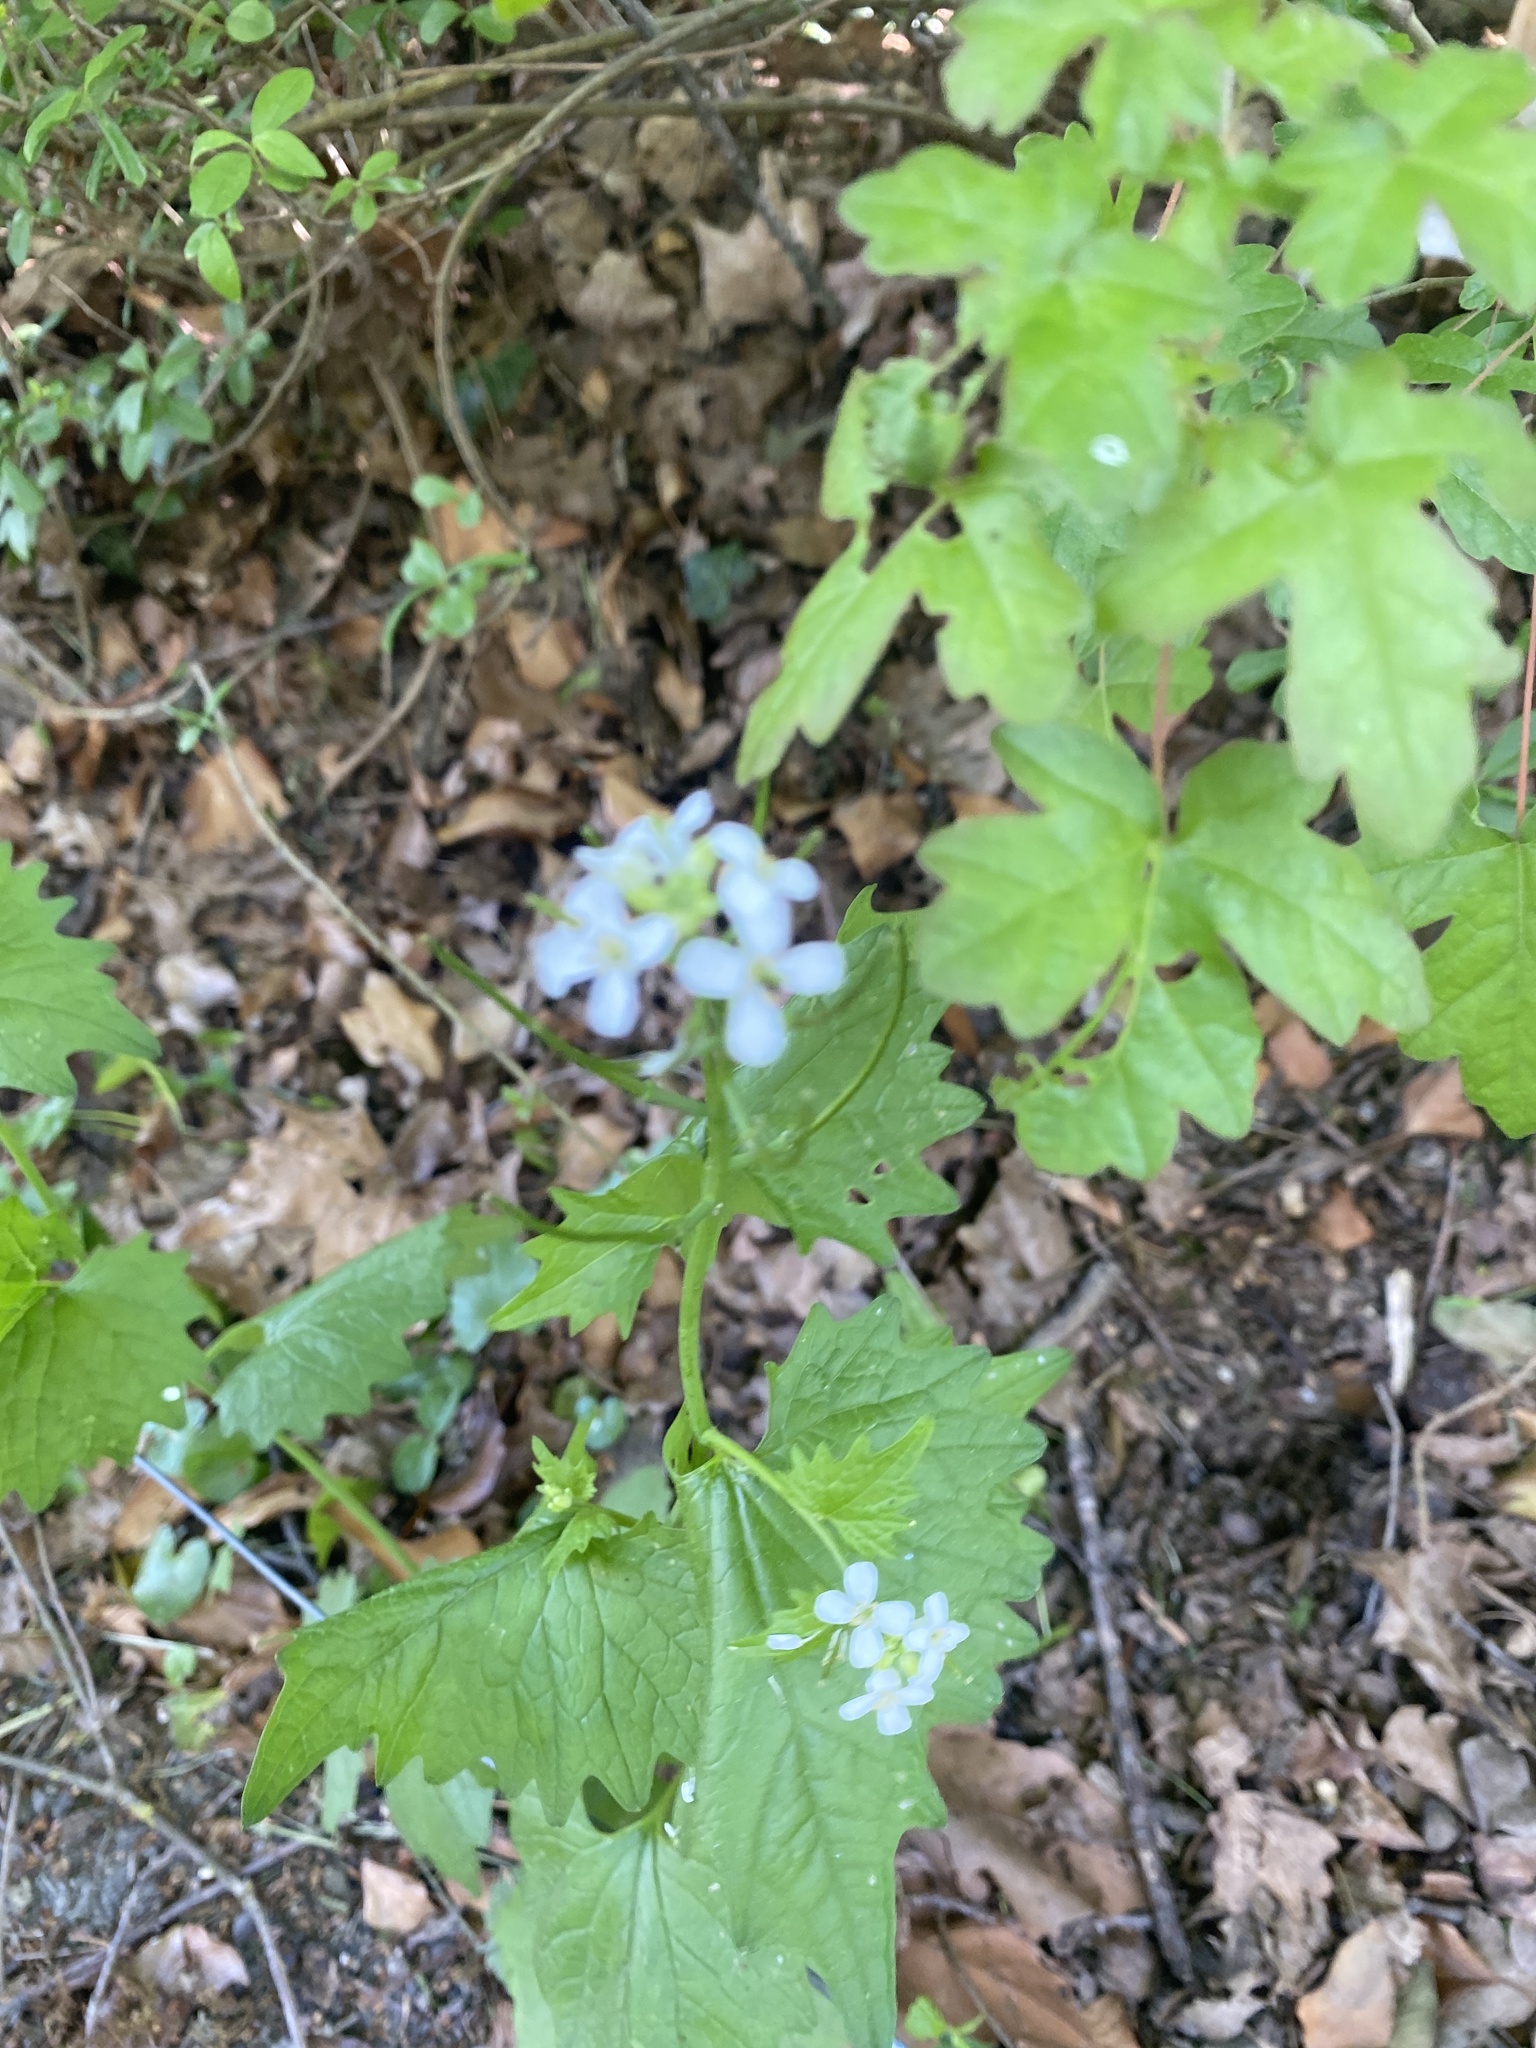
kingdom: Plantae
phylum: Tracheophyta
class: Magnoliopsida
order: Brassicales
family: Brassicaceae
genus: Alliaria
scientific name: Alliaria petiolata
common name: Garlic mustard
